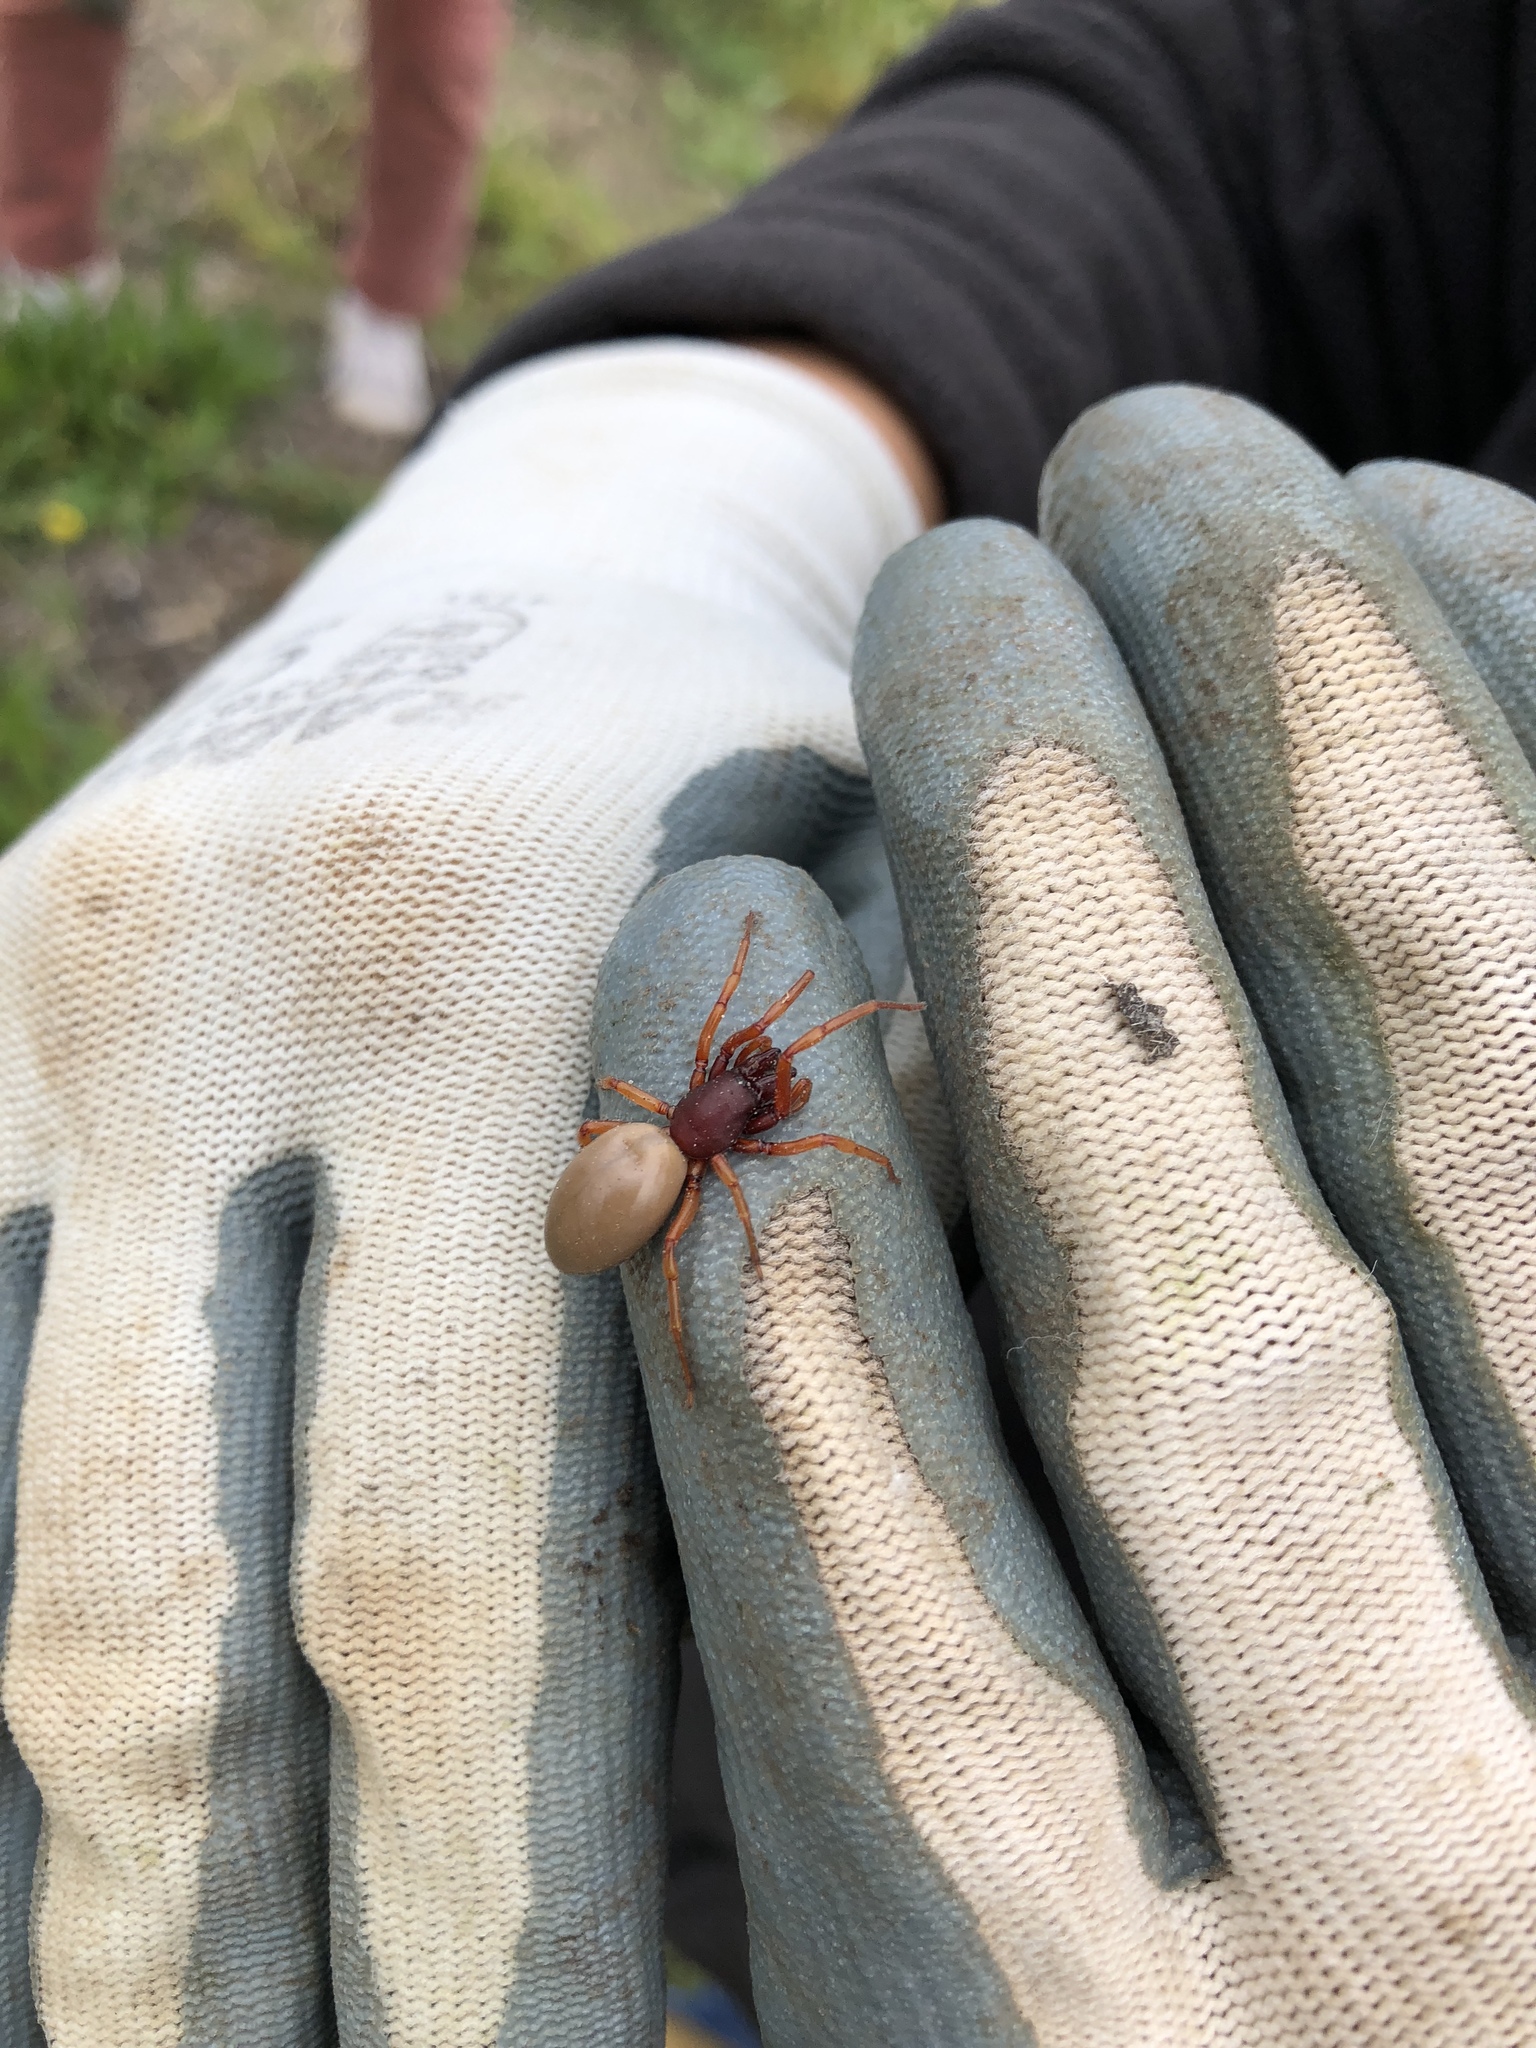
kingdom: Animalia
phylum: Arthropoda
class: Arachnida
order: Araneae
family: Dysderidae
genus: Dysdera
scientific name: Dysdera crocata
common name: Woodlouse spider
